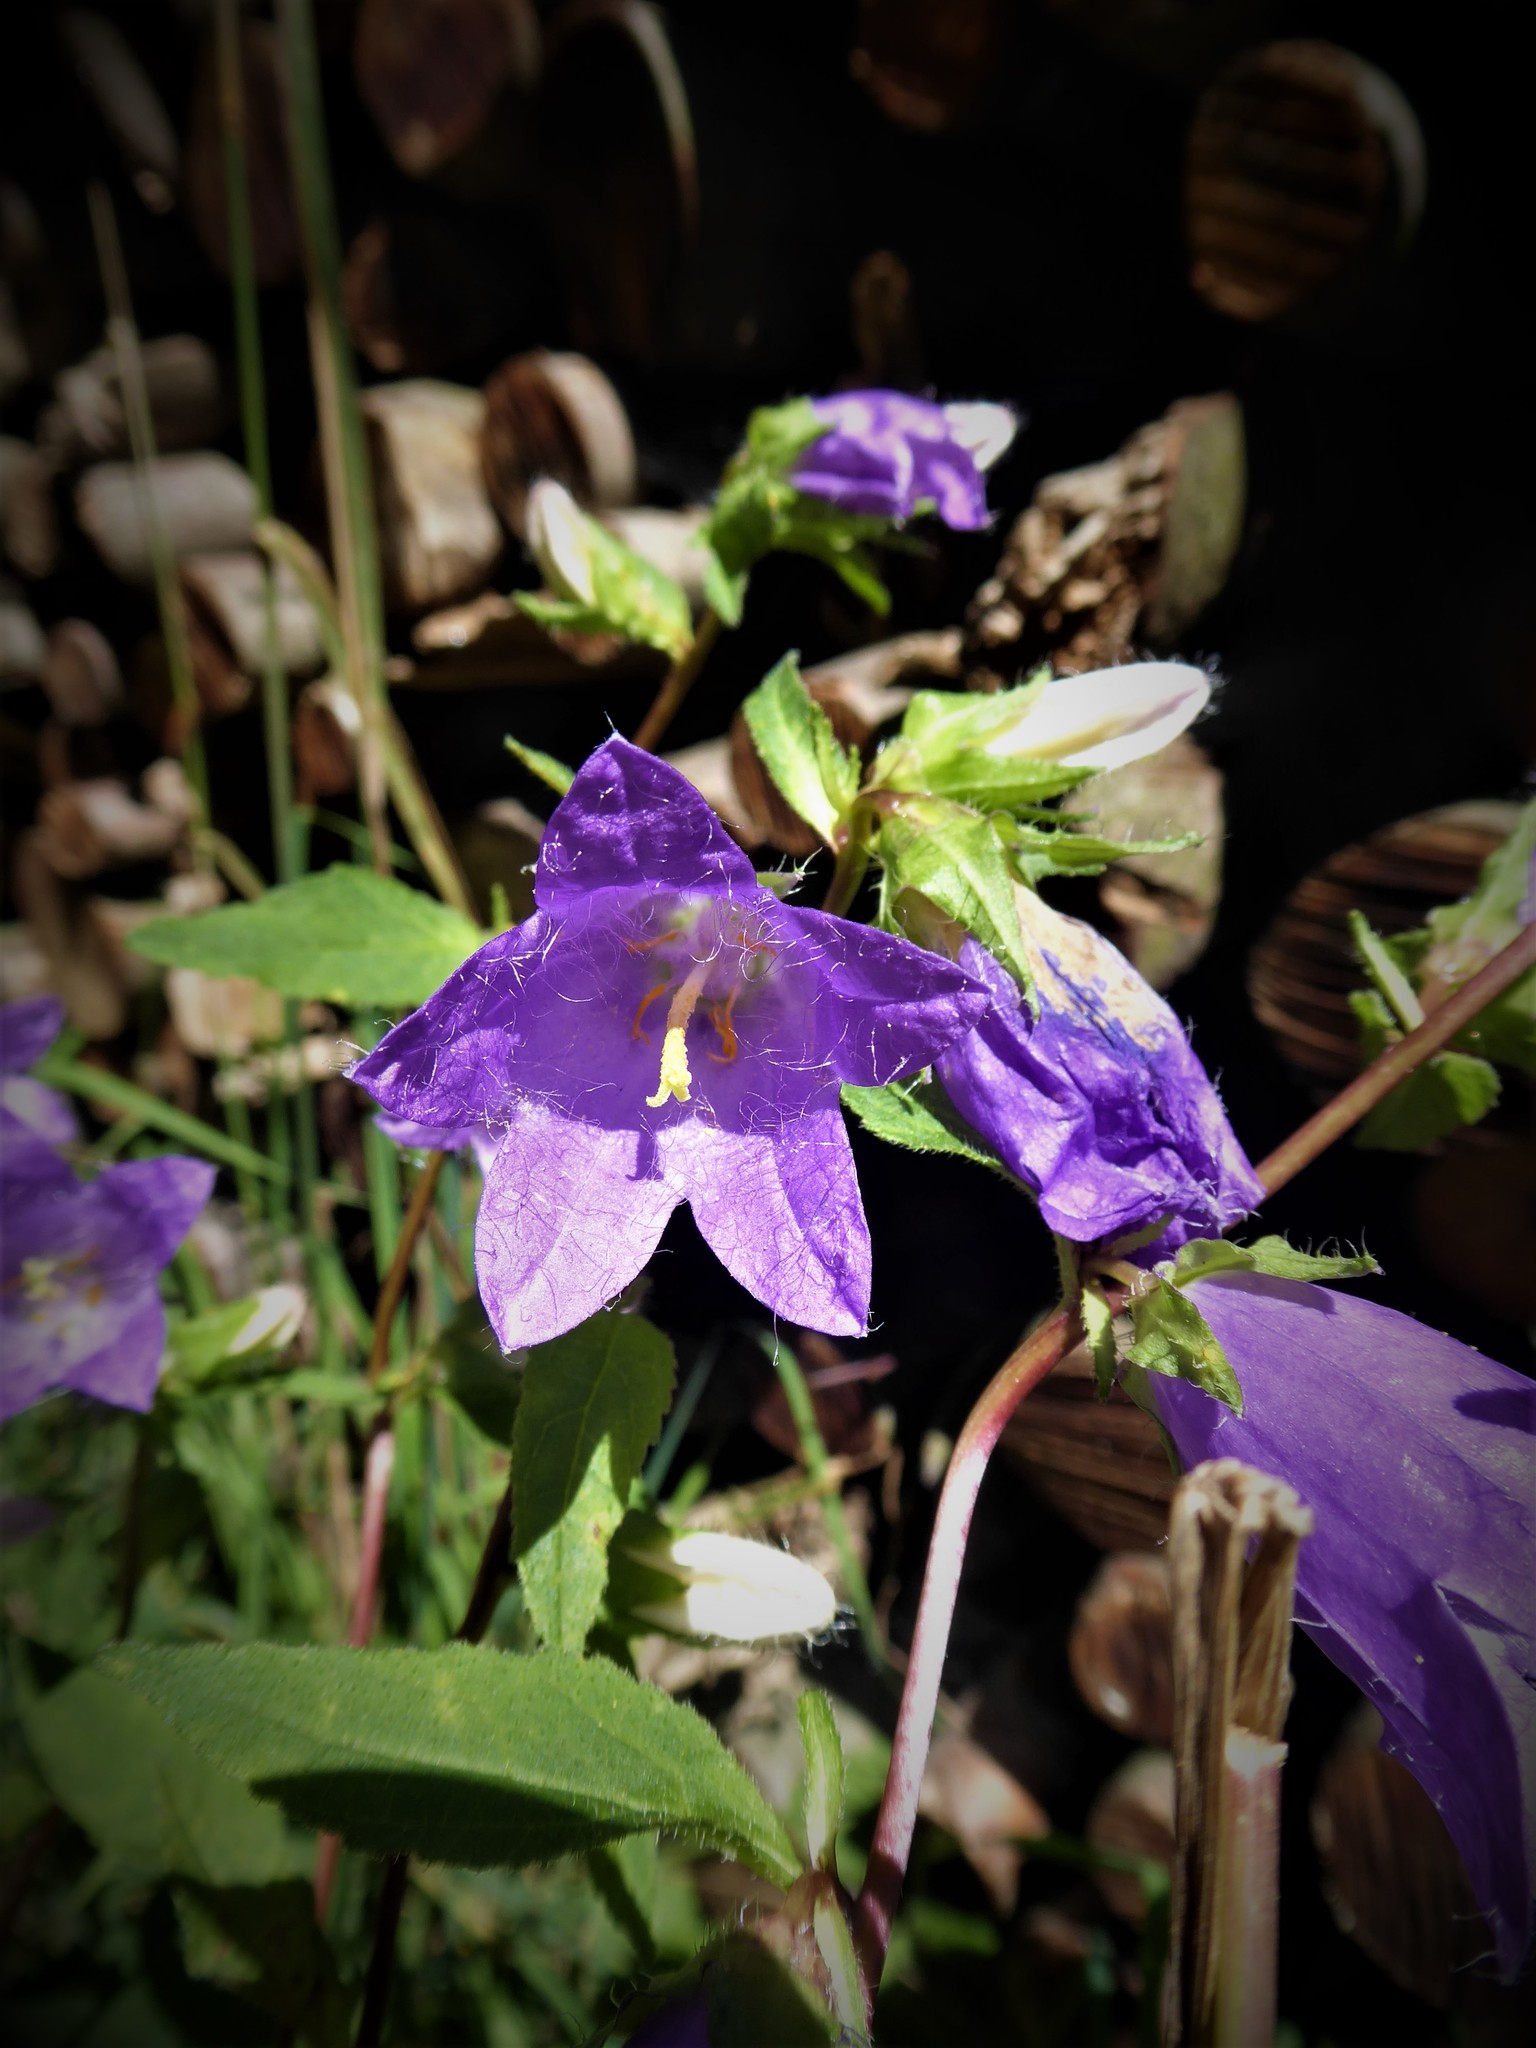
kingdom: Plantae
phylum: Tracheophyta
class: Magnoliopsida
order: Asterales
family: Campanulaceae
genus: Campanula
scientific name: Campanula trachelium
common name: Nettle-leaved bellflower
